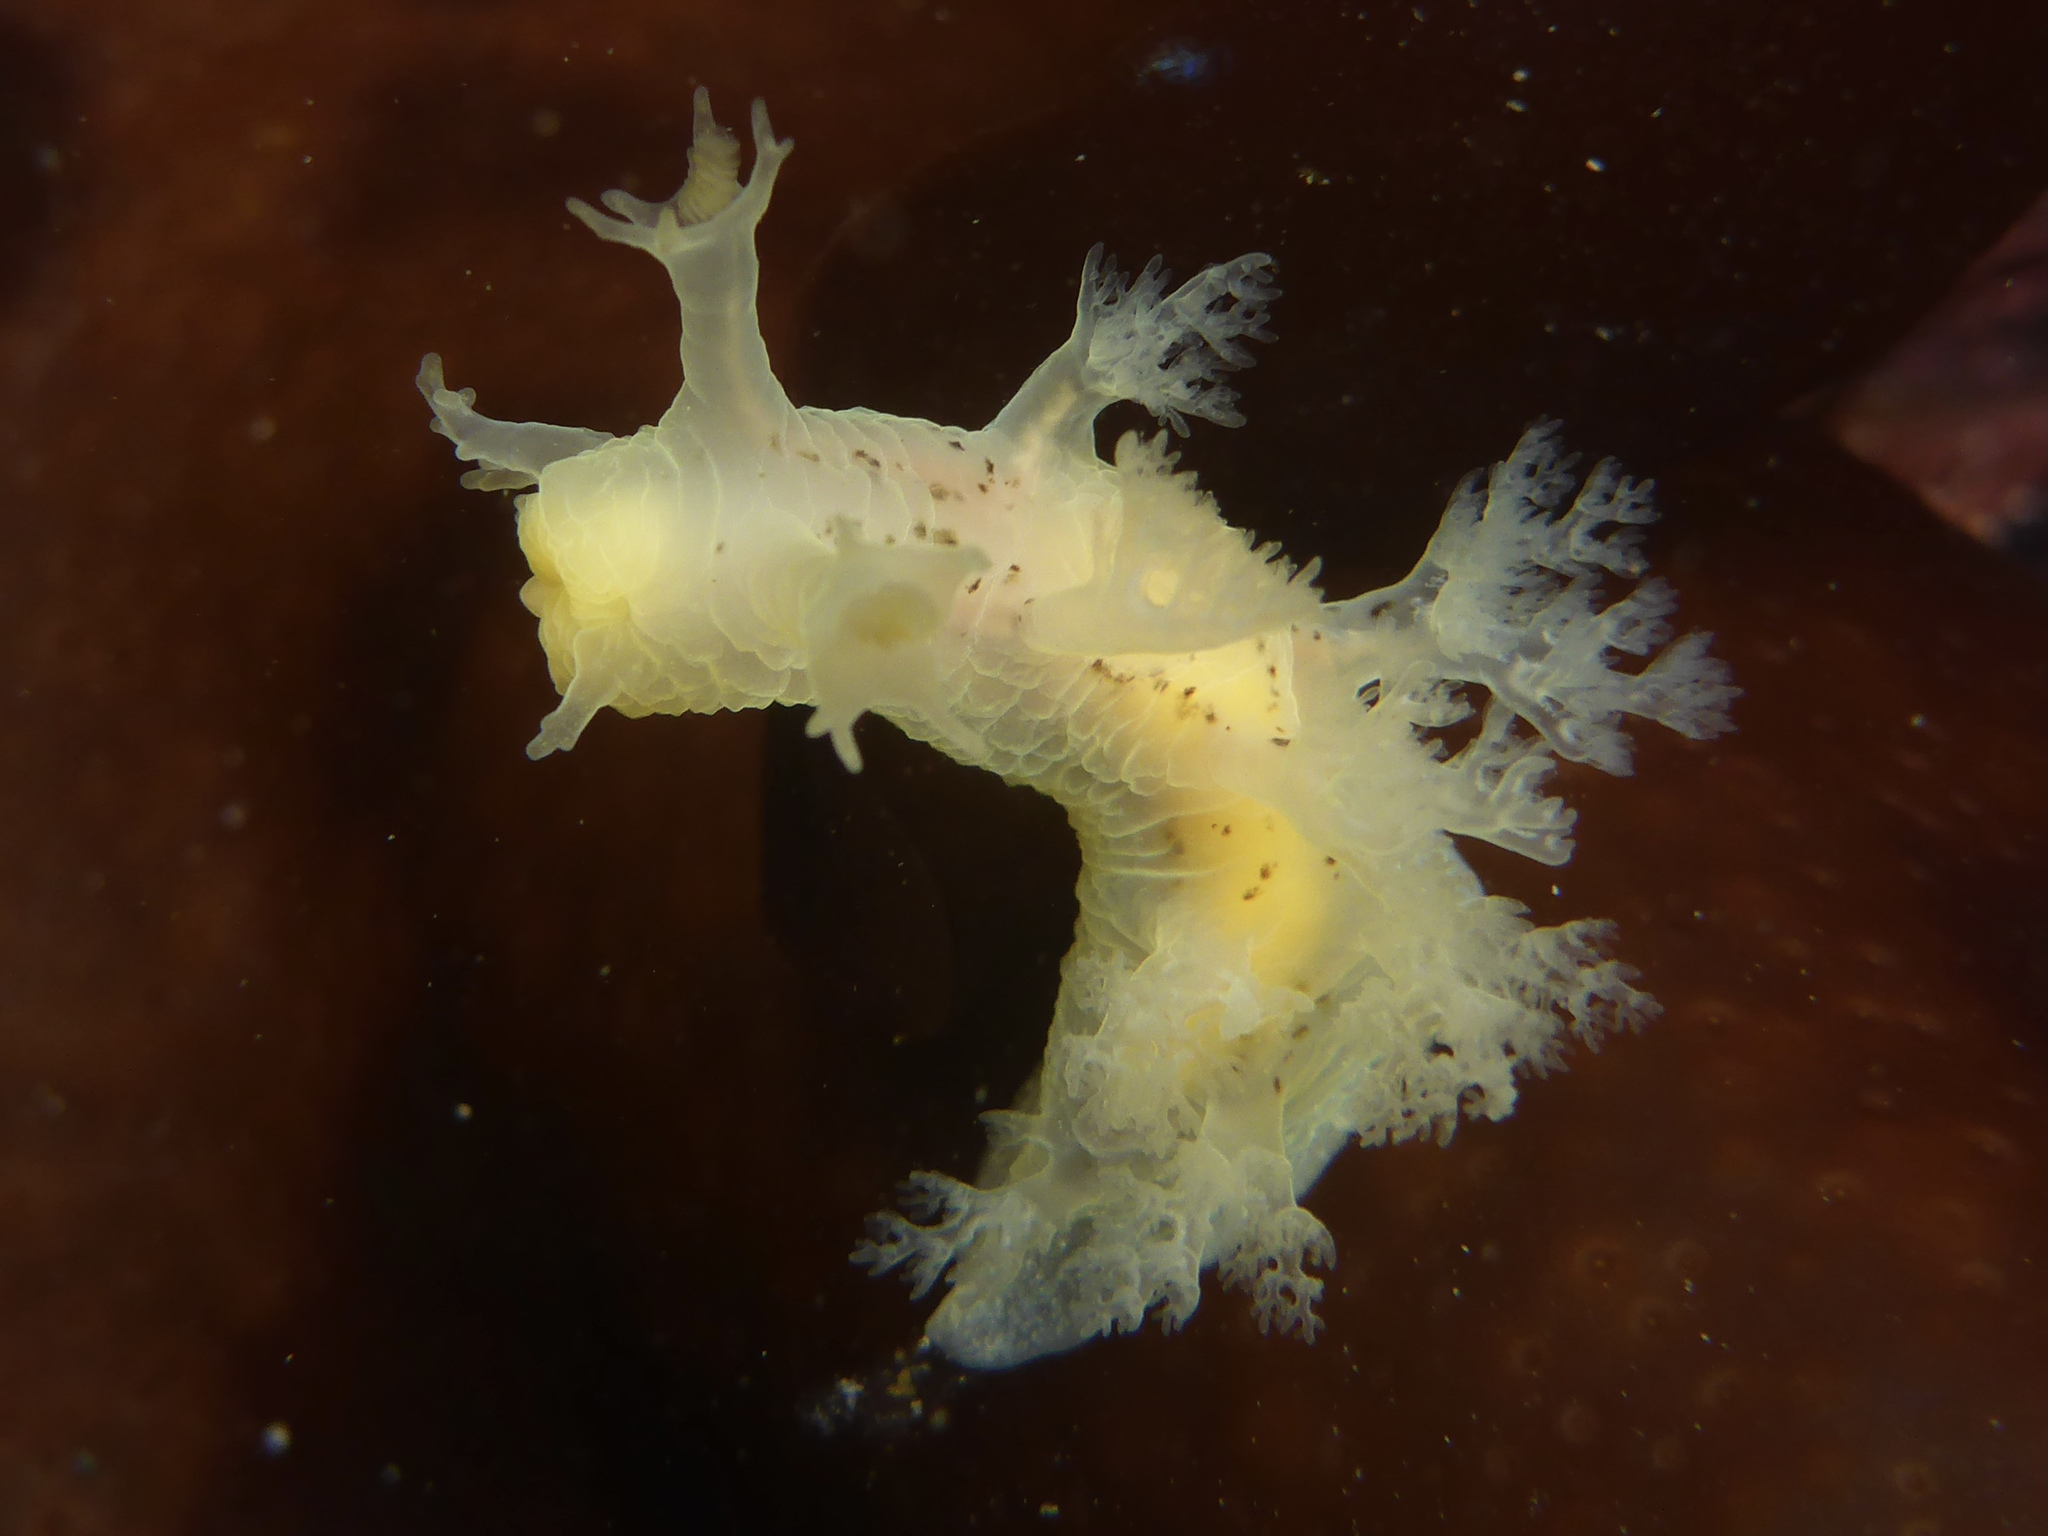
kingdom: Animalia
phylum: Mollusca
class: Gastropoda
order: Nudibranchia
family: Dendronotidae
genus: Dendronotus
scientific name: Dendronotus subramosus
